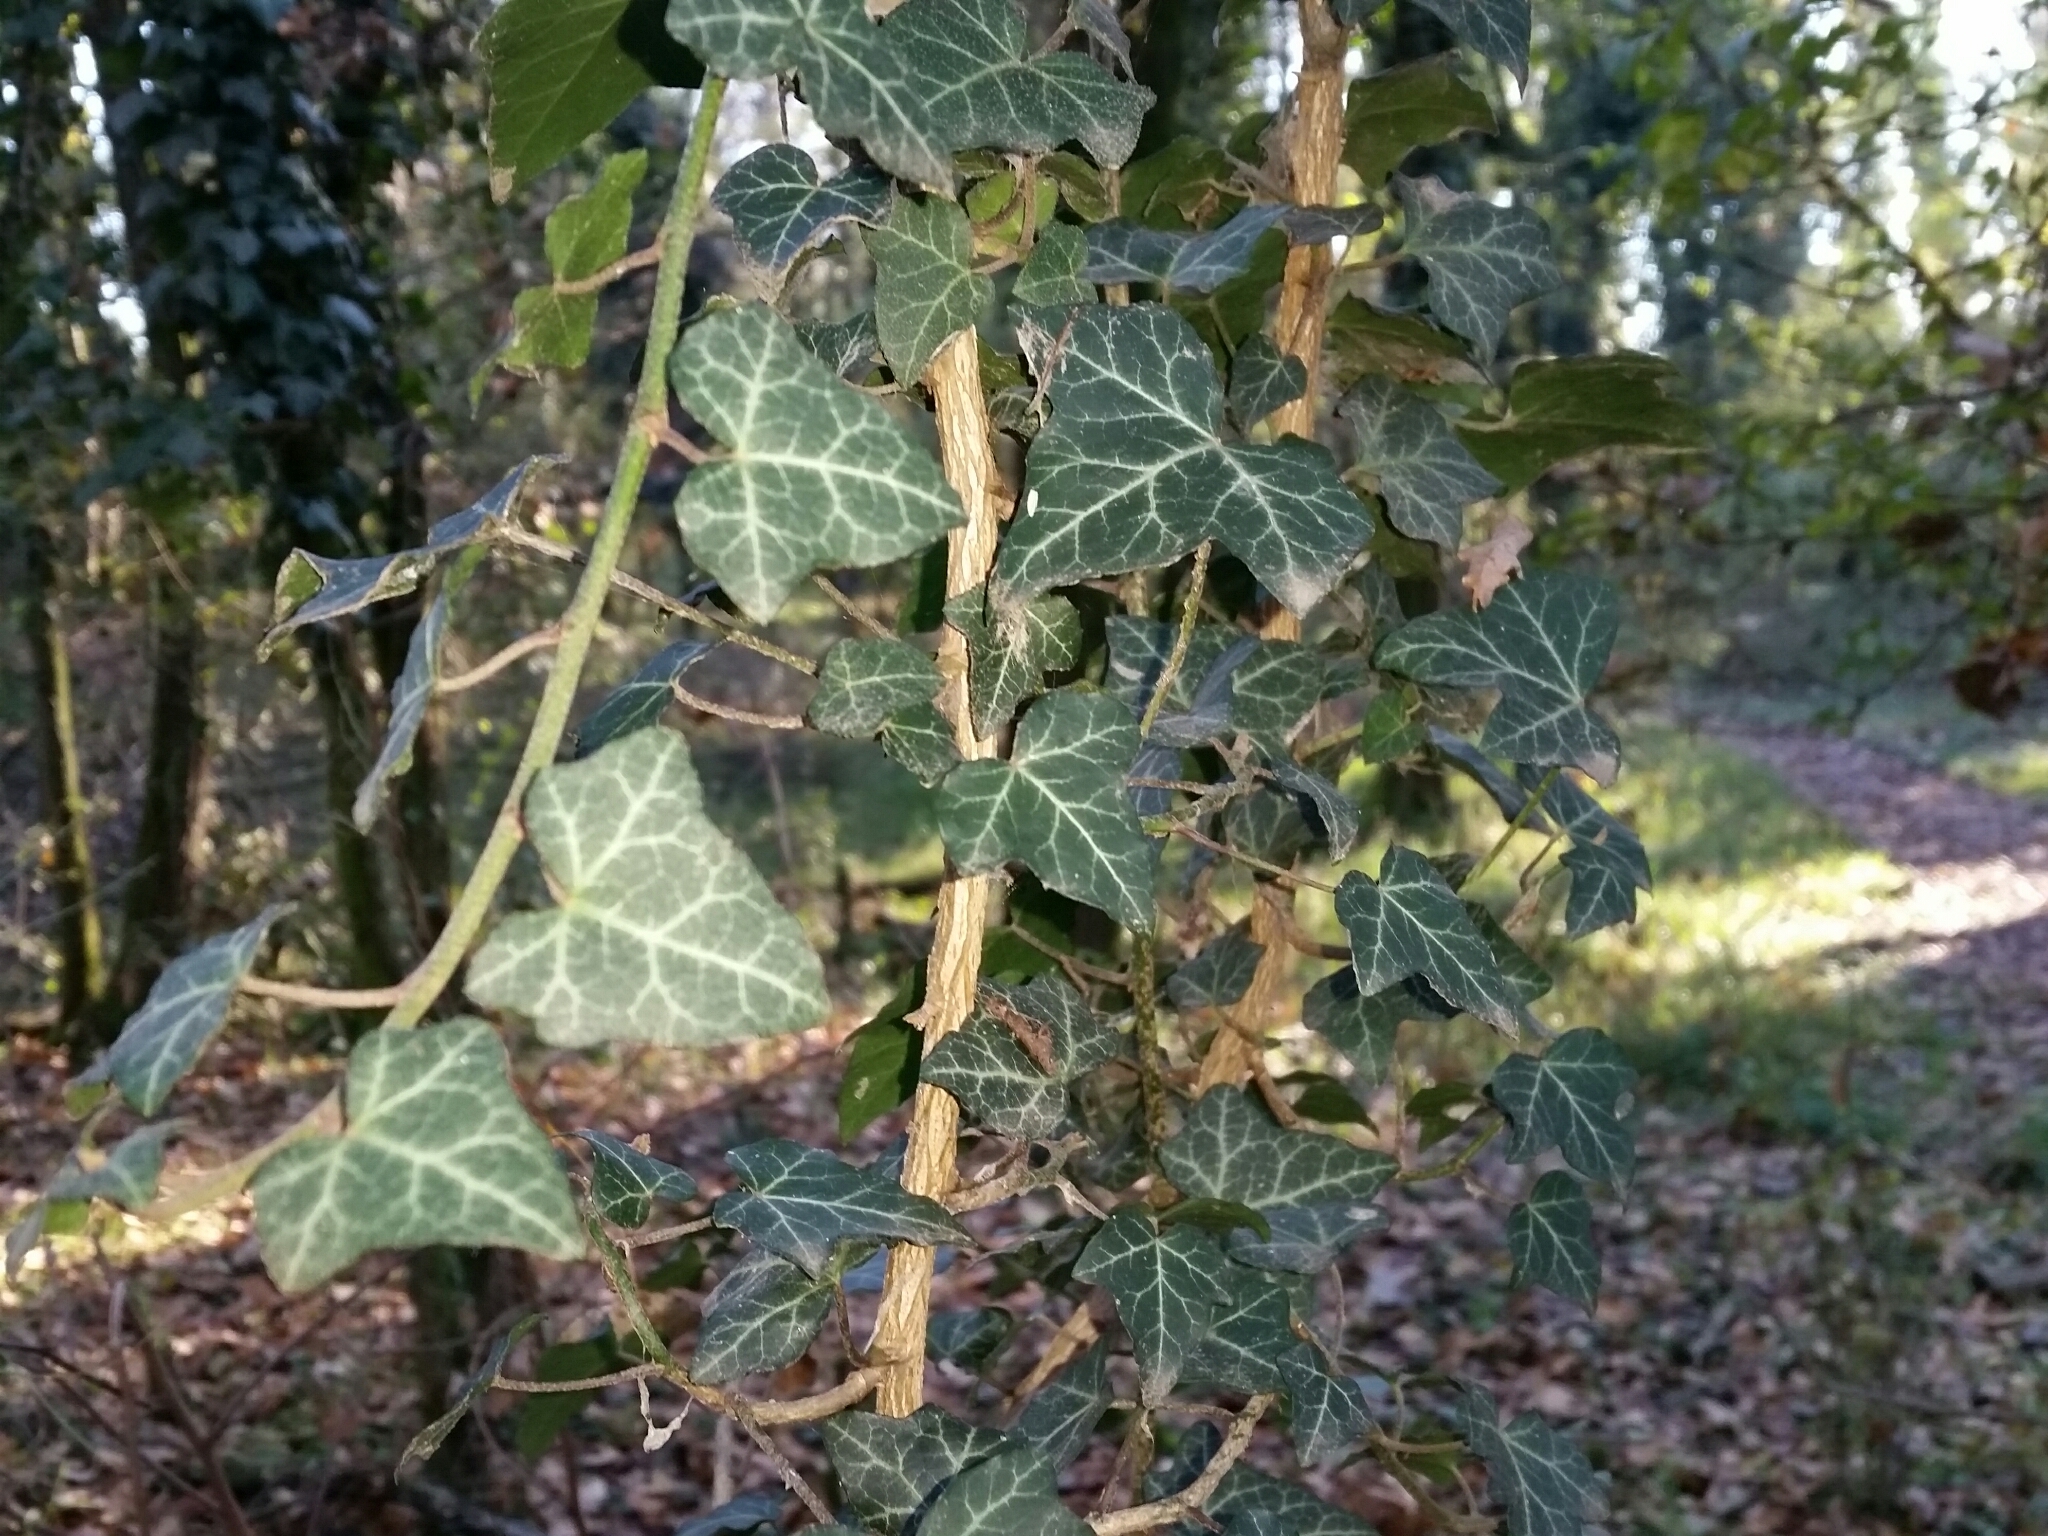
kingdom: Plantae
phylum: Tracheophyta
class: Magnoliopsida
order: Apiales
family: Araliaceae
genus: Hedera
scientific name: Hedera helix
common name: Ivy
